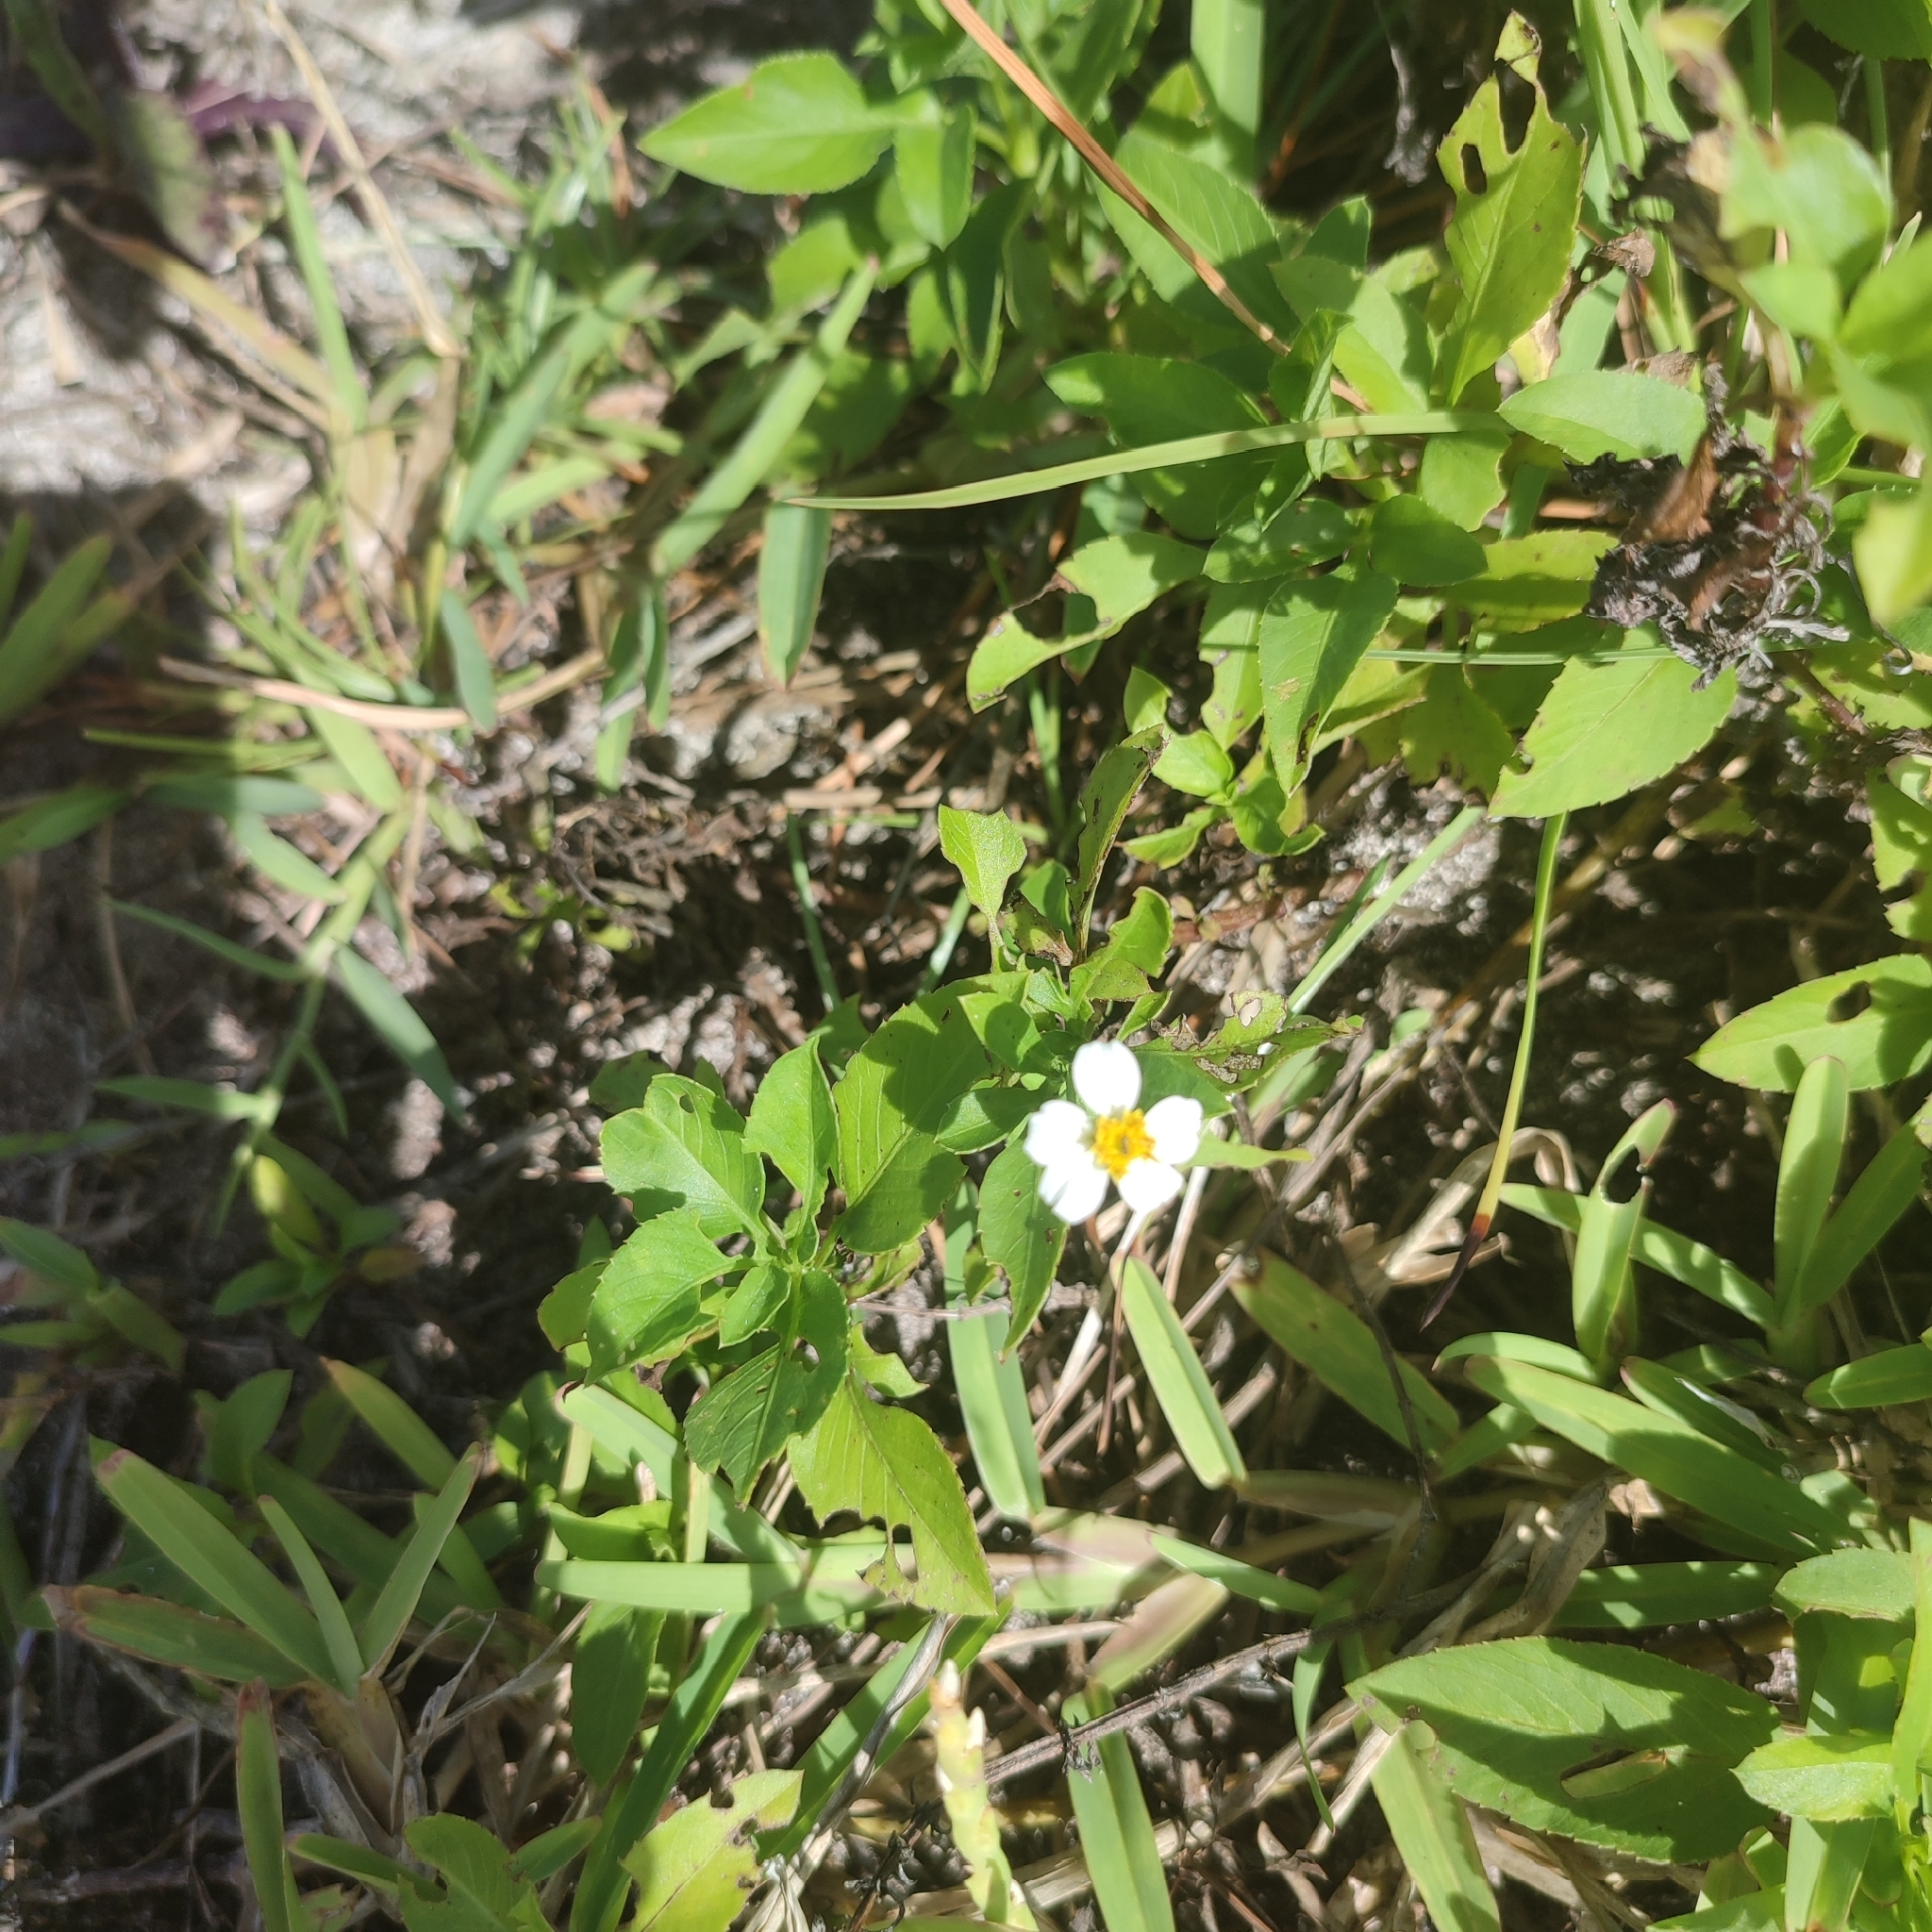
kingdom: Plantae
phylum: Tracheophyta
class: Magnoliopsida
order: Asterales
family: Asteraceae
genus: Bidens
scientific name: Bidens alba
